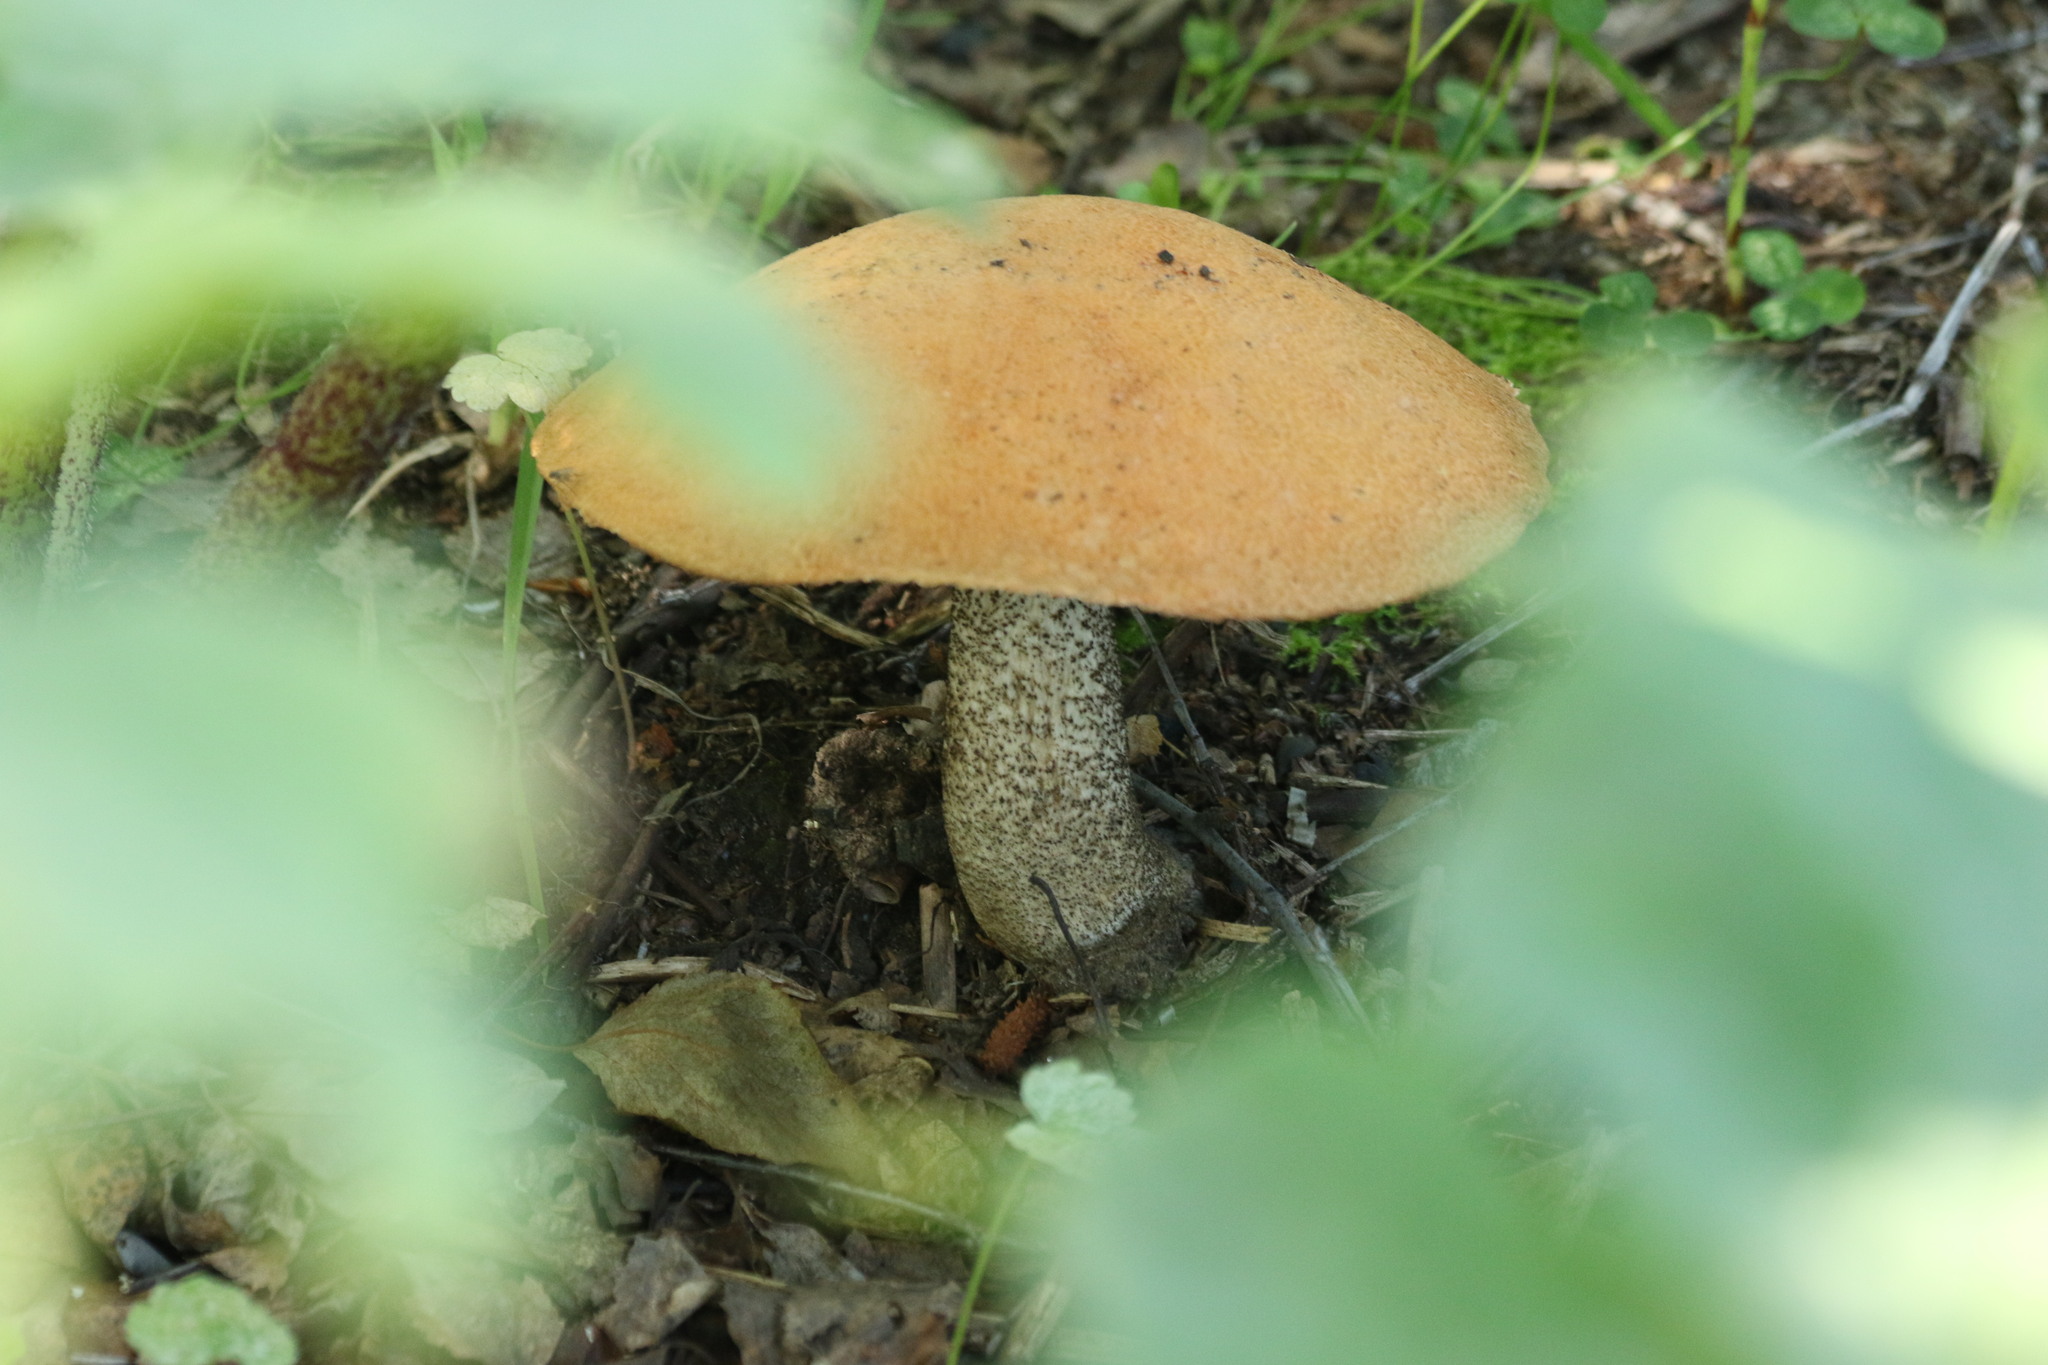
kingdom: Fungi
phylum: Basidiomycota
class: Agaricomycetes
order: Boletales
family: Boletaceae
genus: Leccinum
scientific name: Leccinum versipelle
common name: Orange birch bolete
